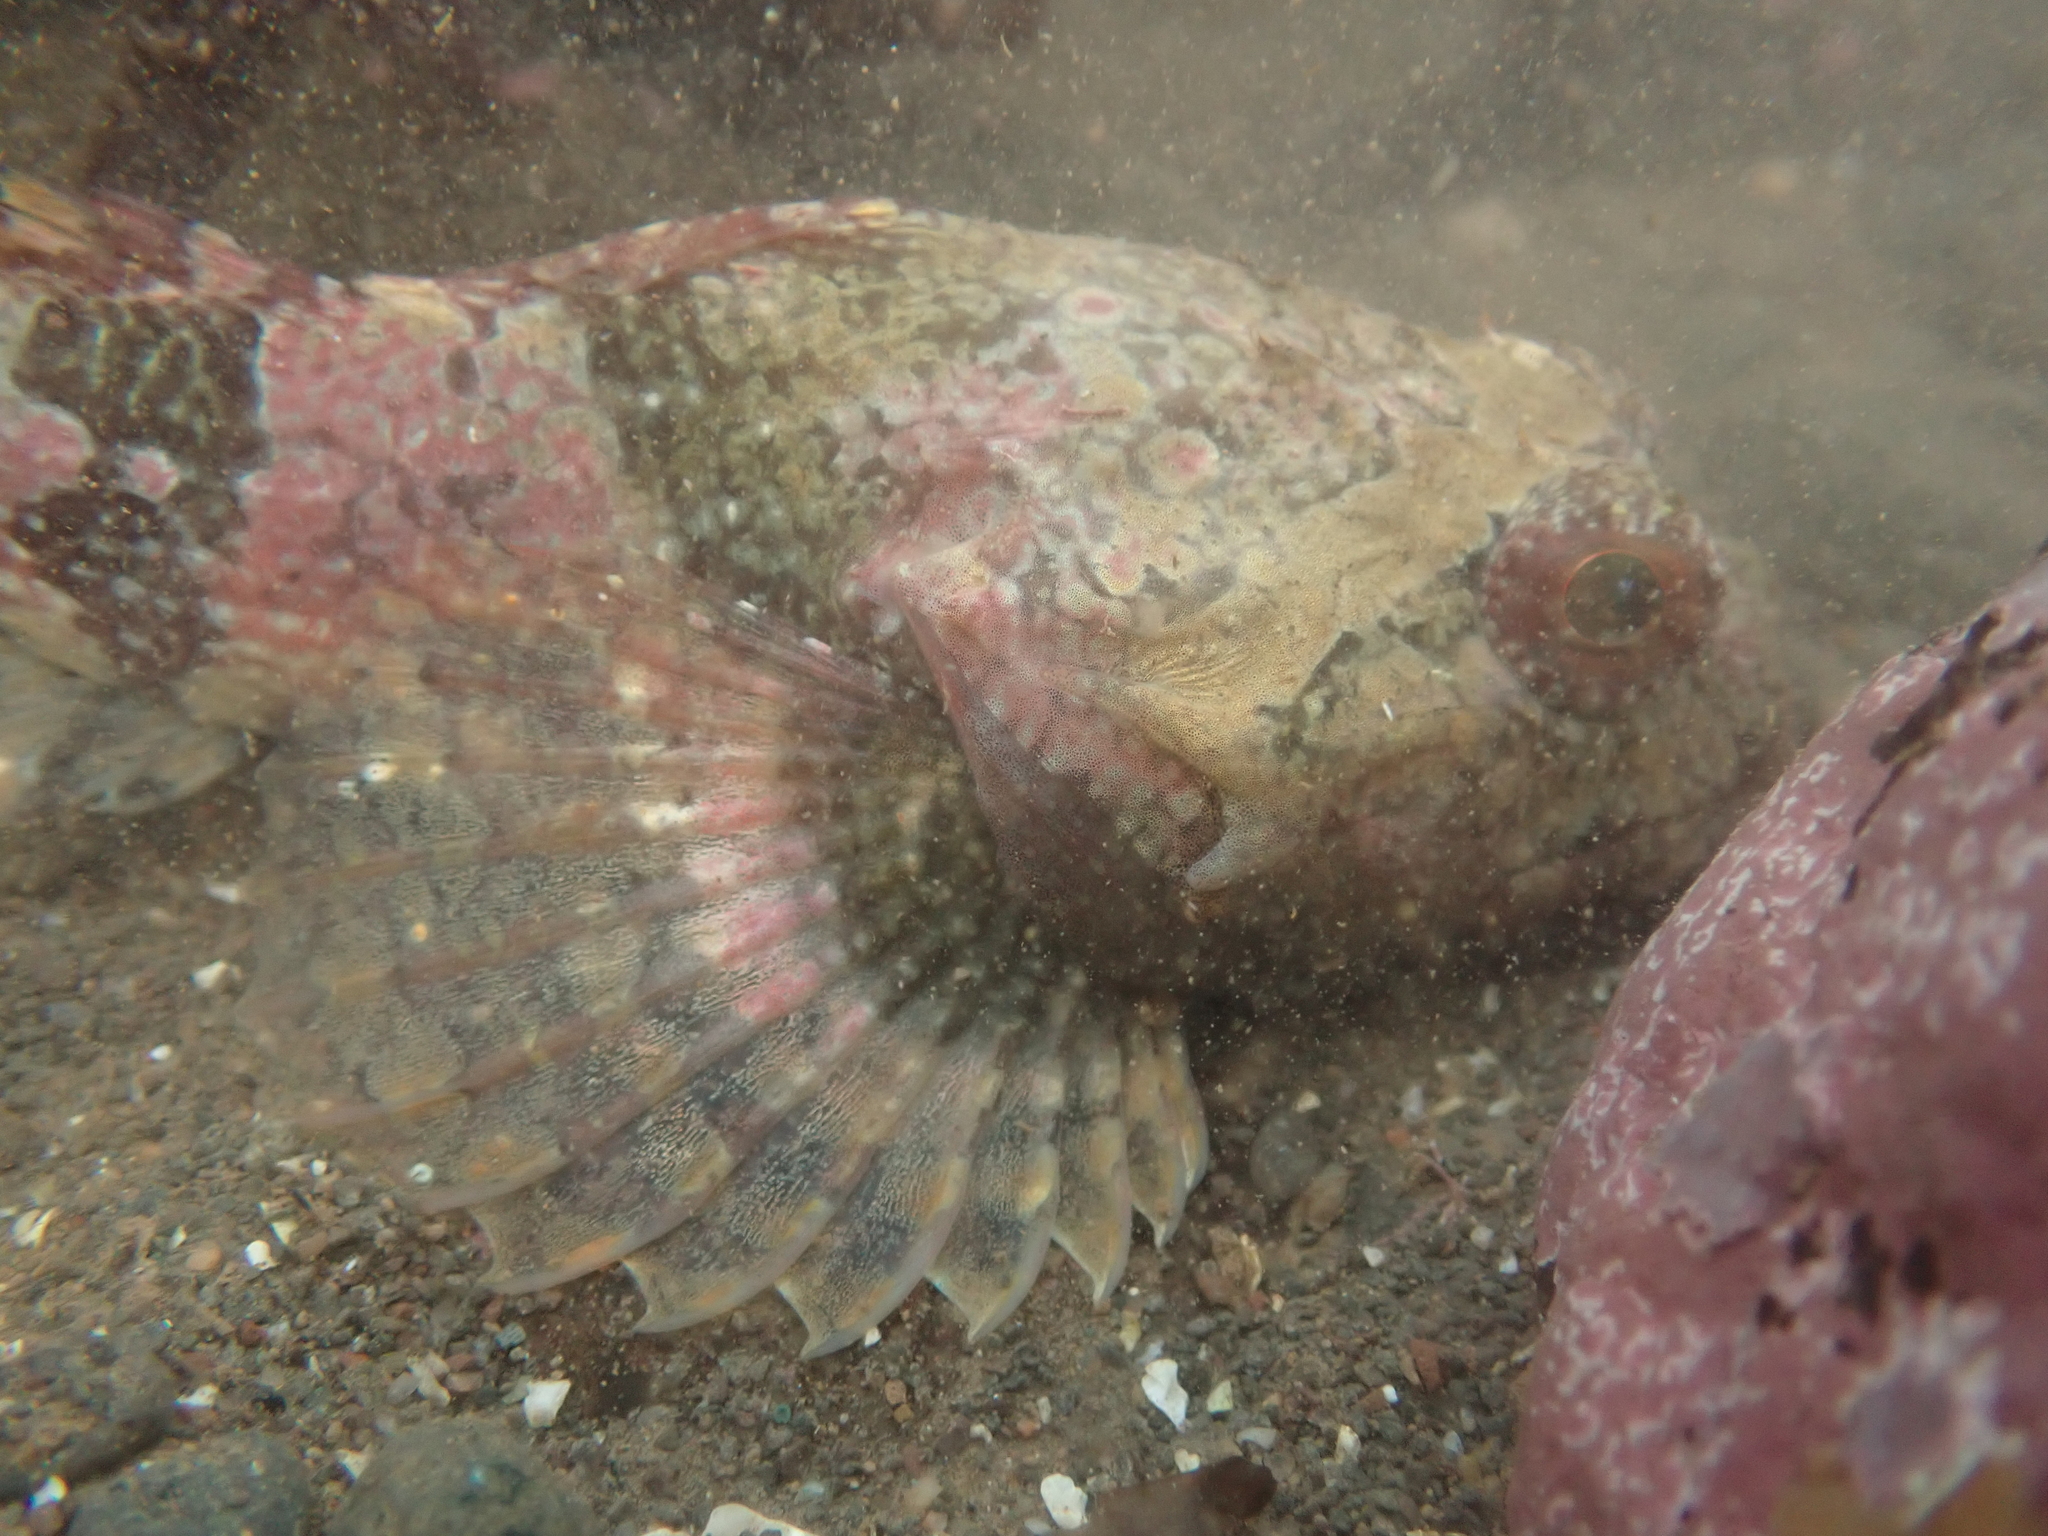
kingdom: Animalia
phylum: Chordata
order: Scorpaeniformes
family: Cottidae
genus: Myoxocephalus
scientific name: Myoxocephalus
